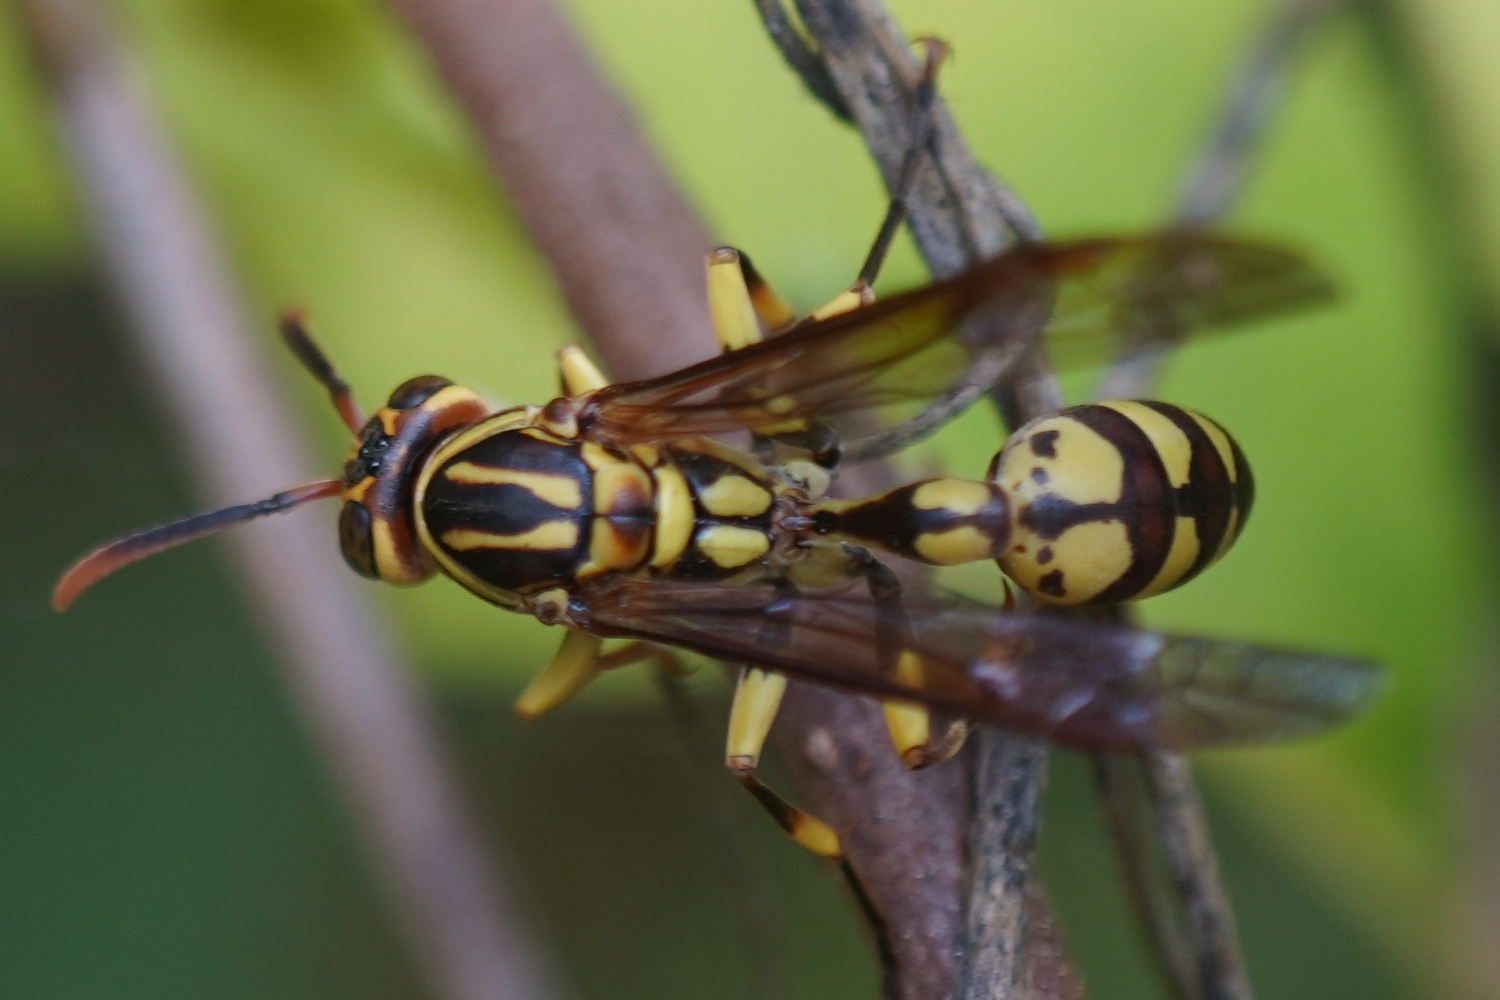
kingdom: Animalia
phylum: Arthropoda
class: Insecta
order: Hymenoptera
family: Vespidae
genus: Parapolybia
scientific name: Parapolybia varia
